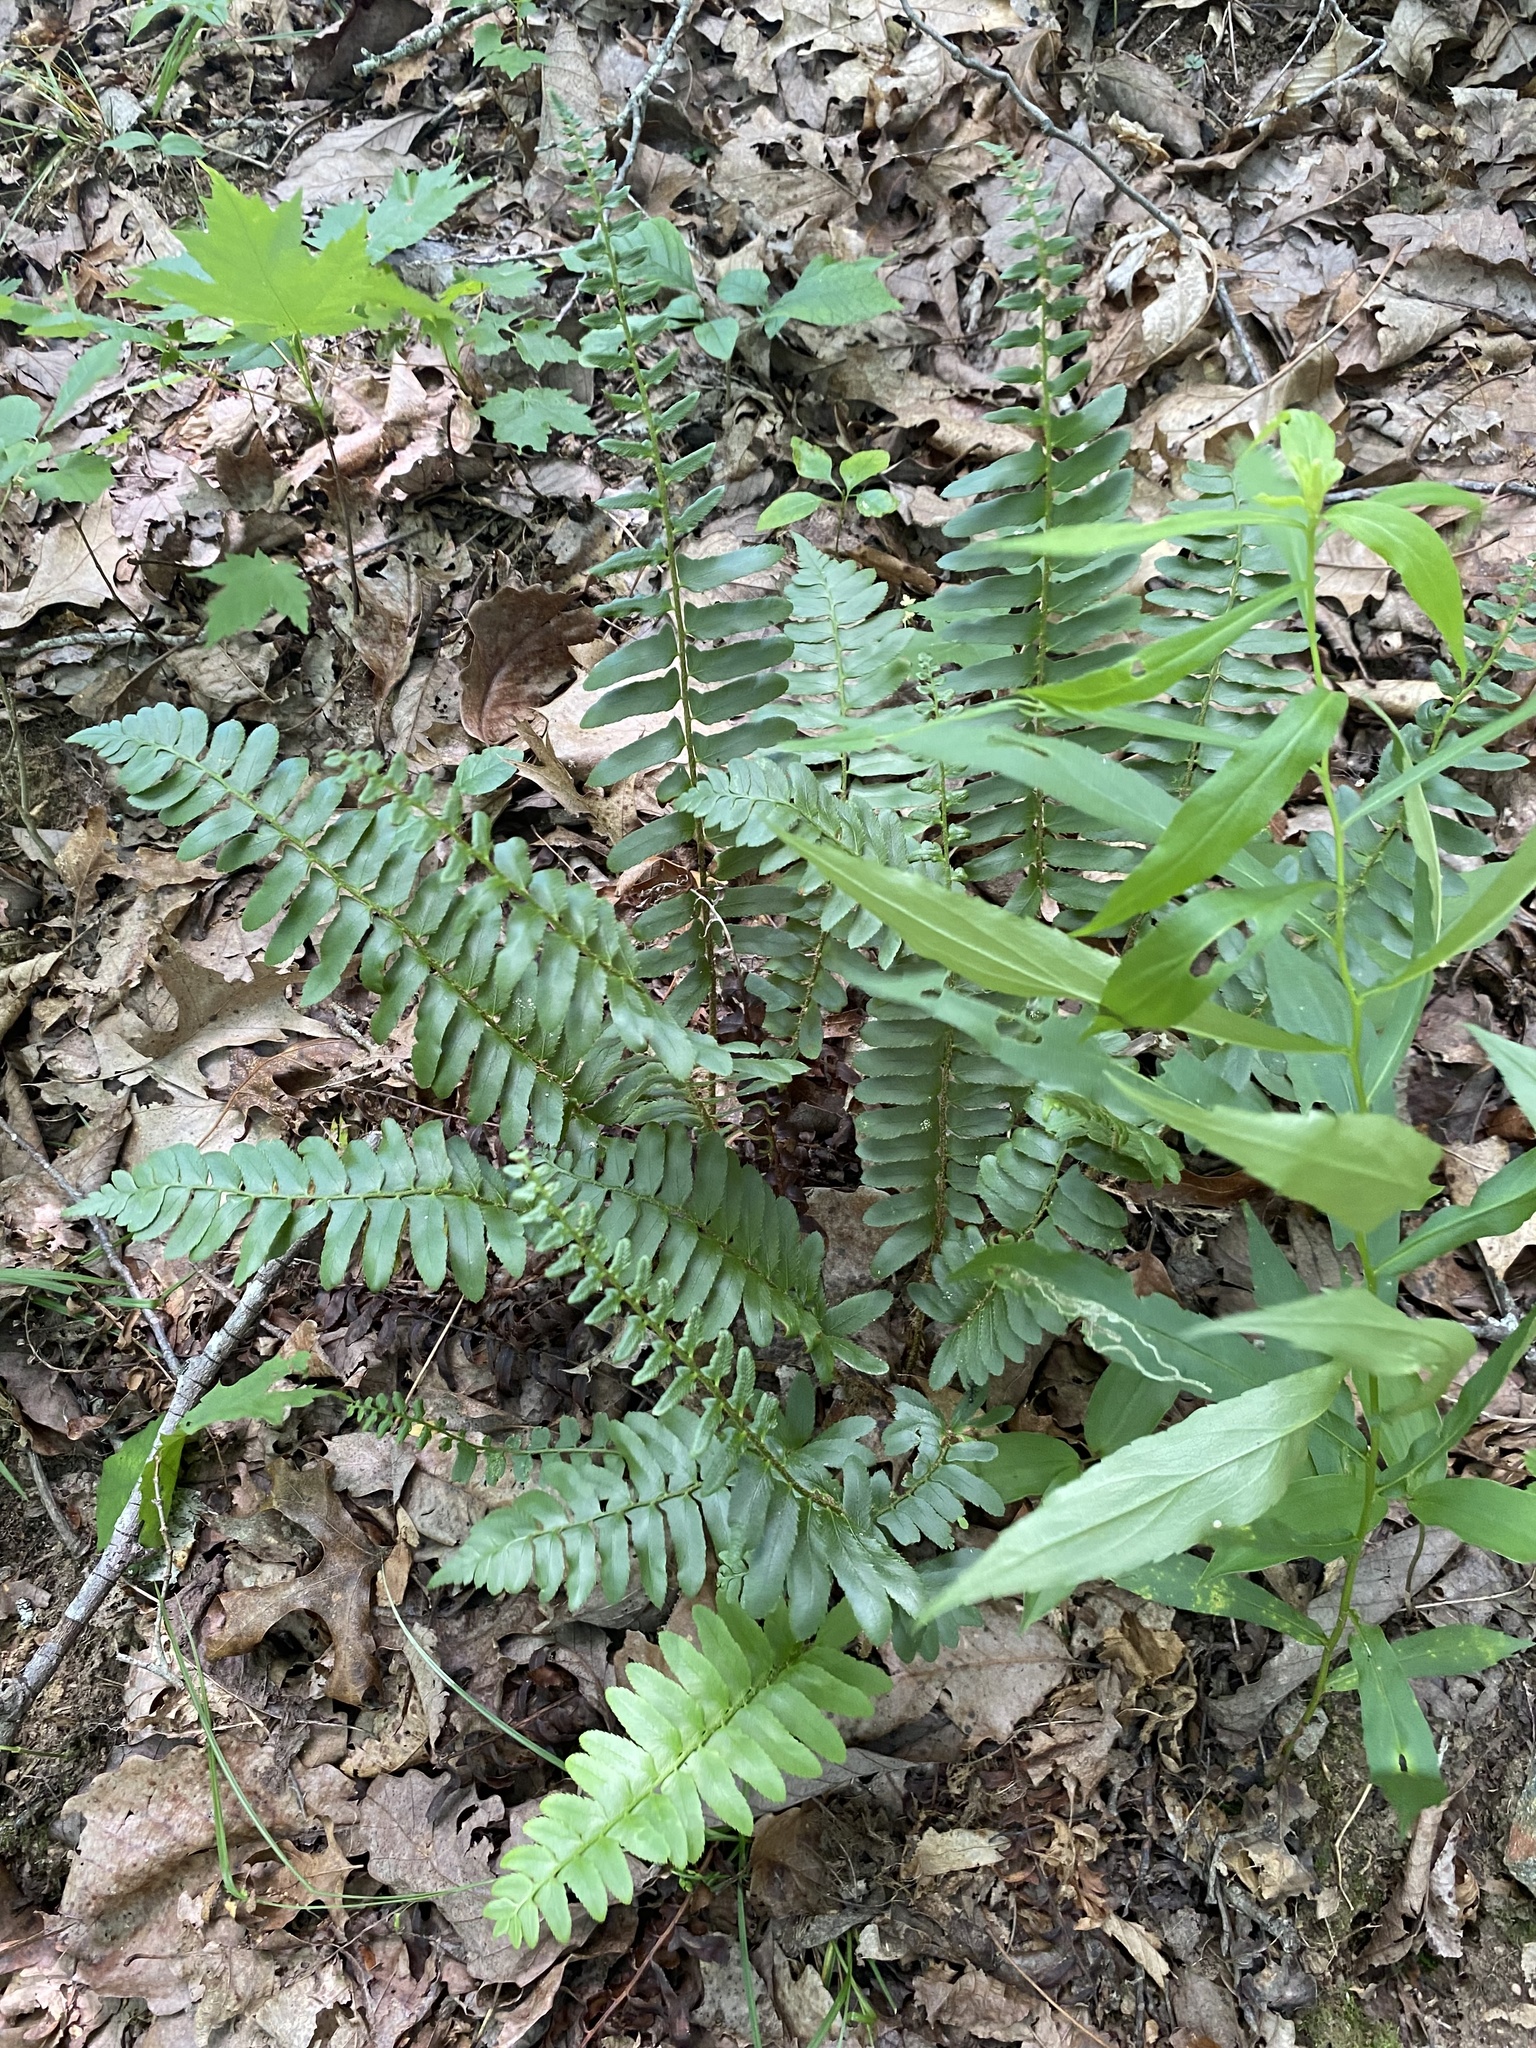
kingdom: Plantae
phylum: Tracheophyta
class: Polypodiopsida
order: Polypodiales
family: Dryopteridaceae
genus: Polystichum
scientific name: Polystichum acrostichoides
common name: Christmas fern
